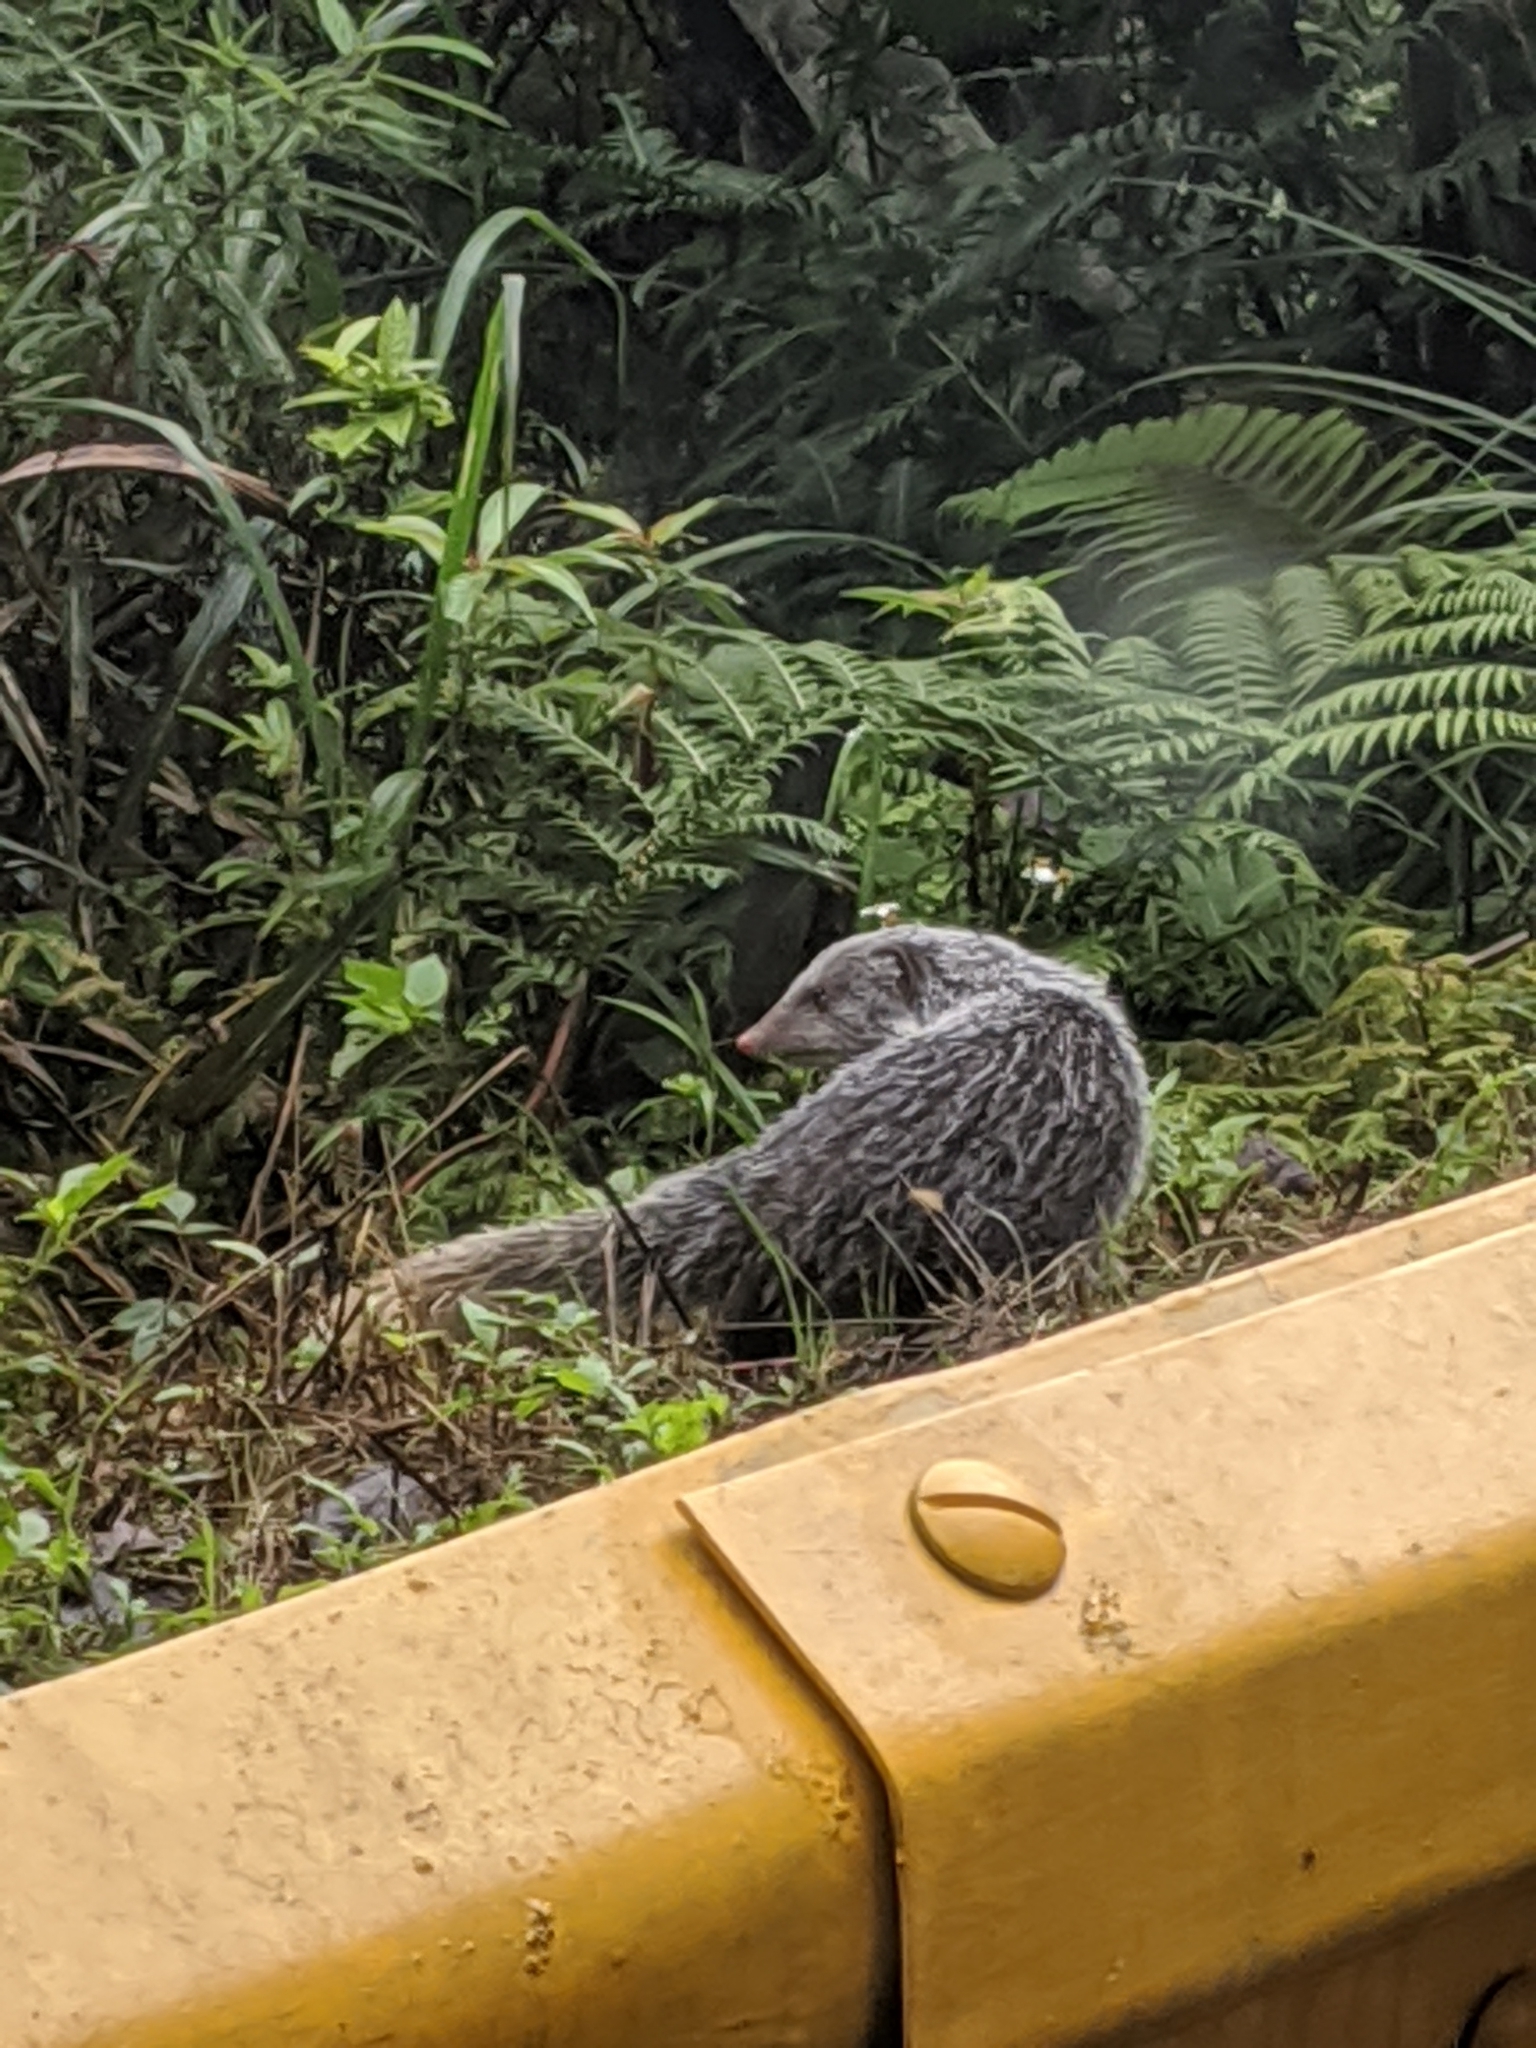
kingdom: Animalia
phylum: Chordata
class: Mammalia
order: Carnivora
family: Herpestidae
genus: Herpestes
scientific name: Herpestes urva
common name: Crab-eating mongoose
